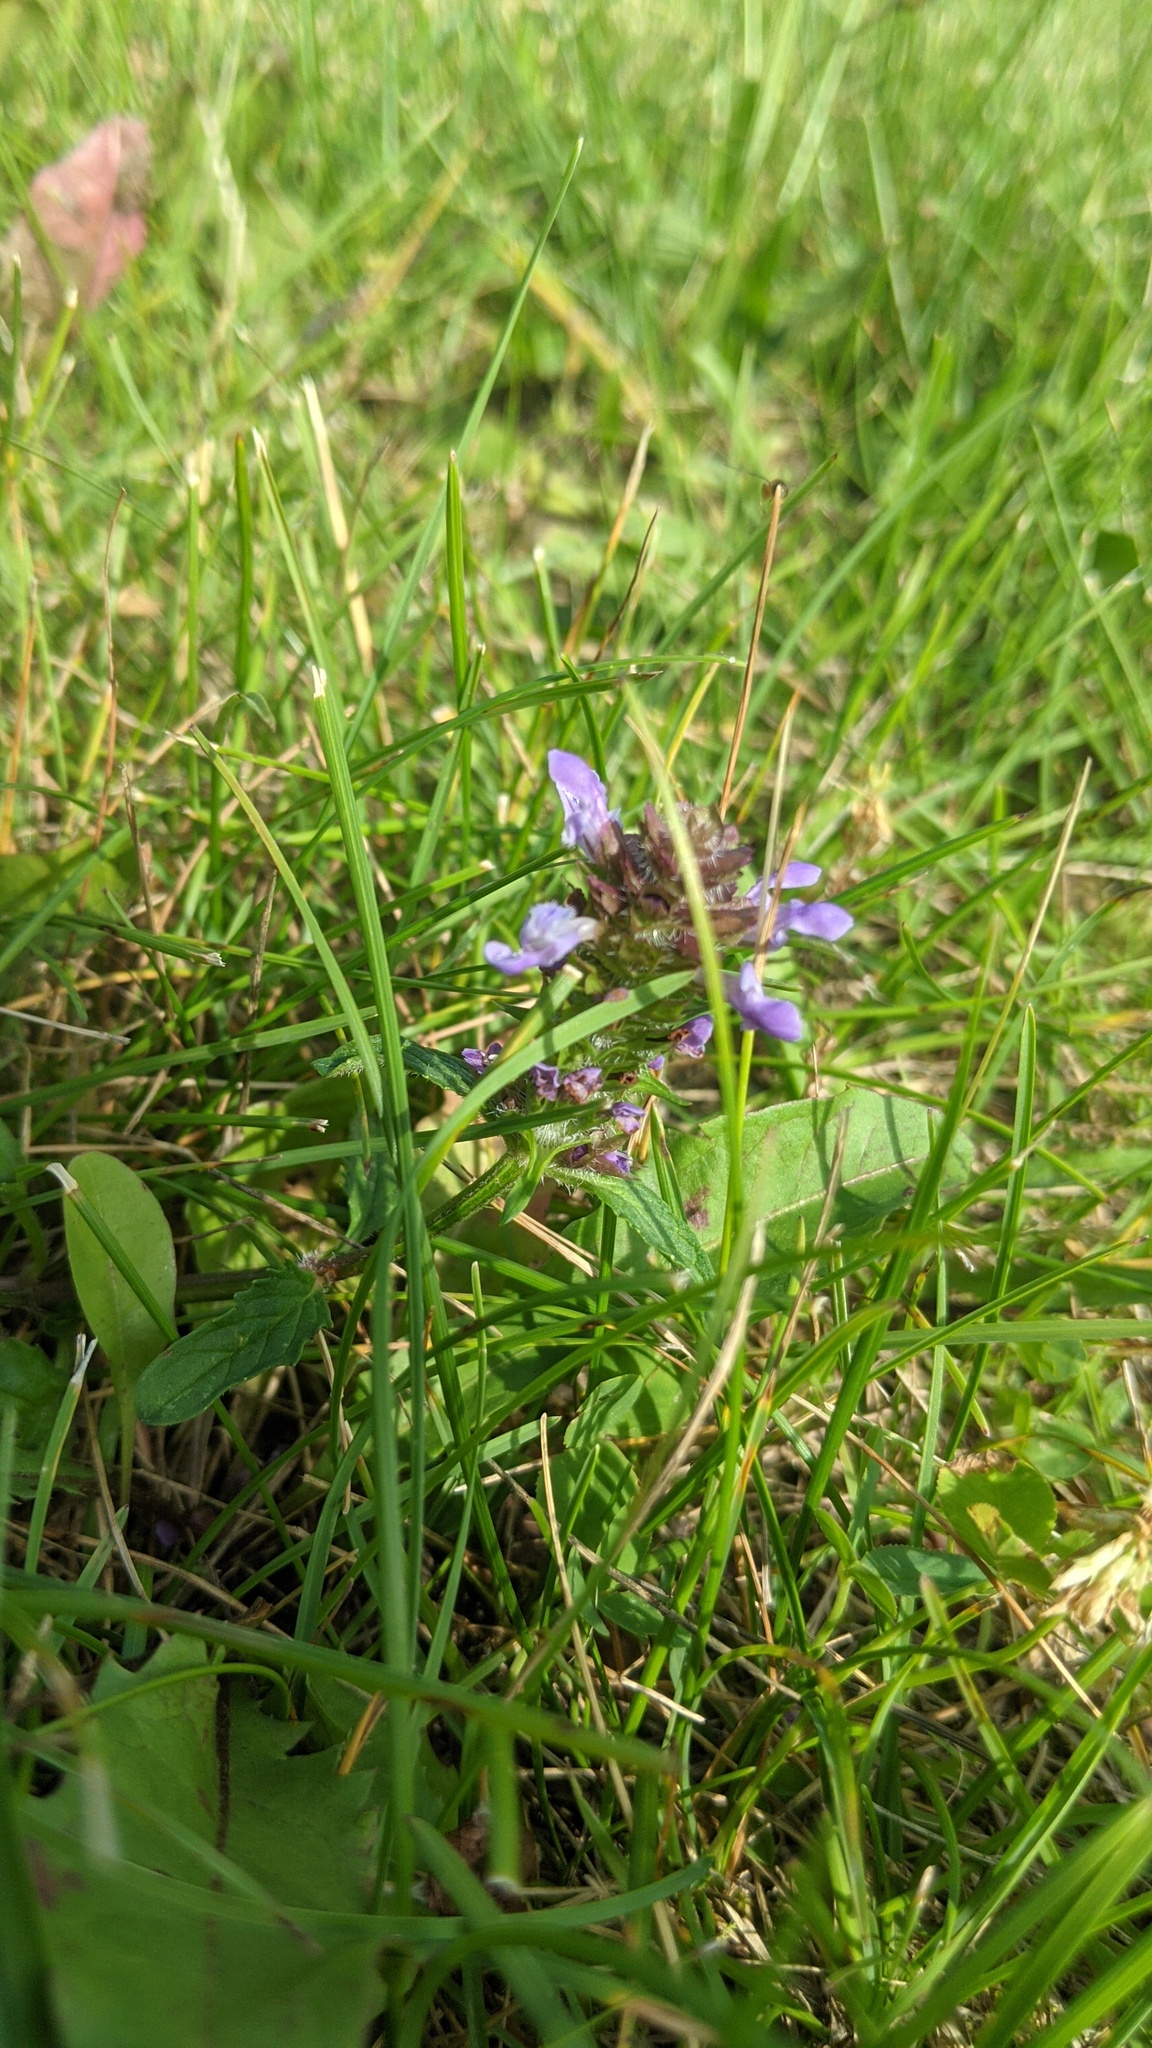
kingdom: Plantae
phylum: Tracheophyta
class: Magnoliopsida
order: Lamiales
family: Lamiaceae
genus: Prunella
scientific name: Prunella vulgaris
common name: Heal-all
